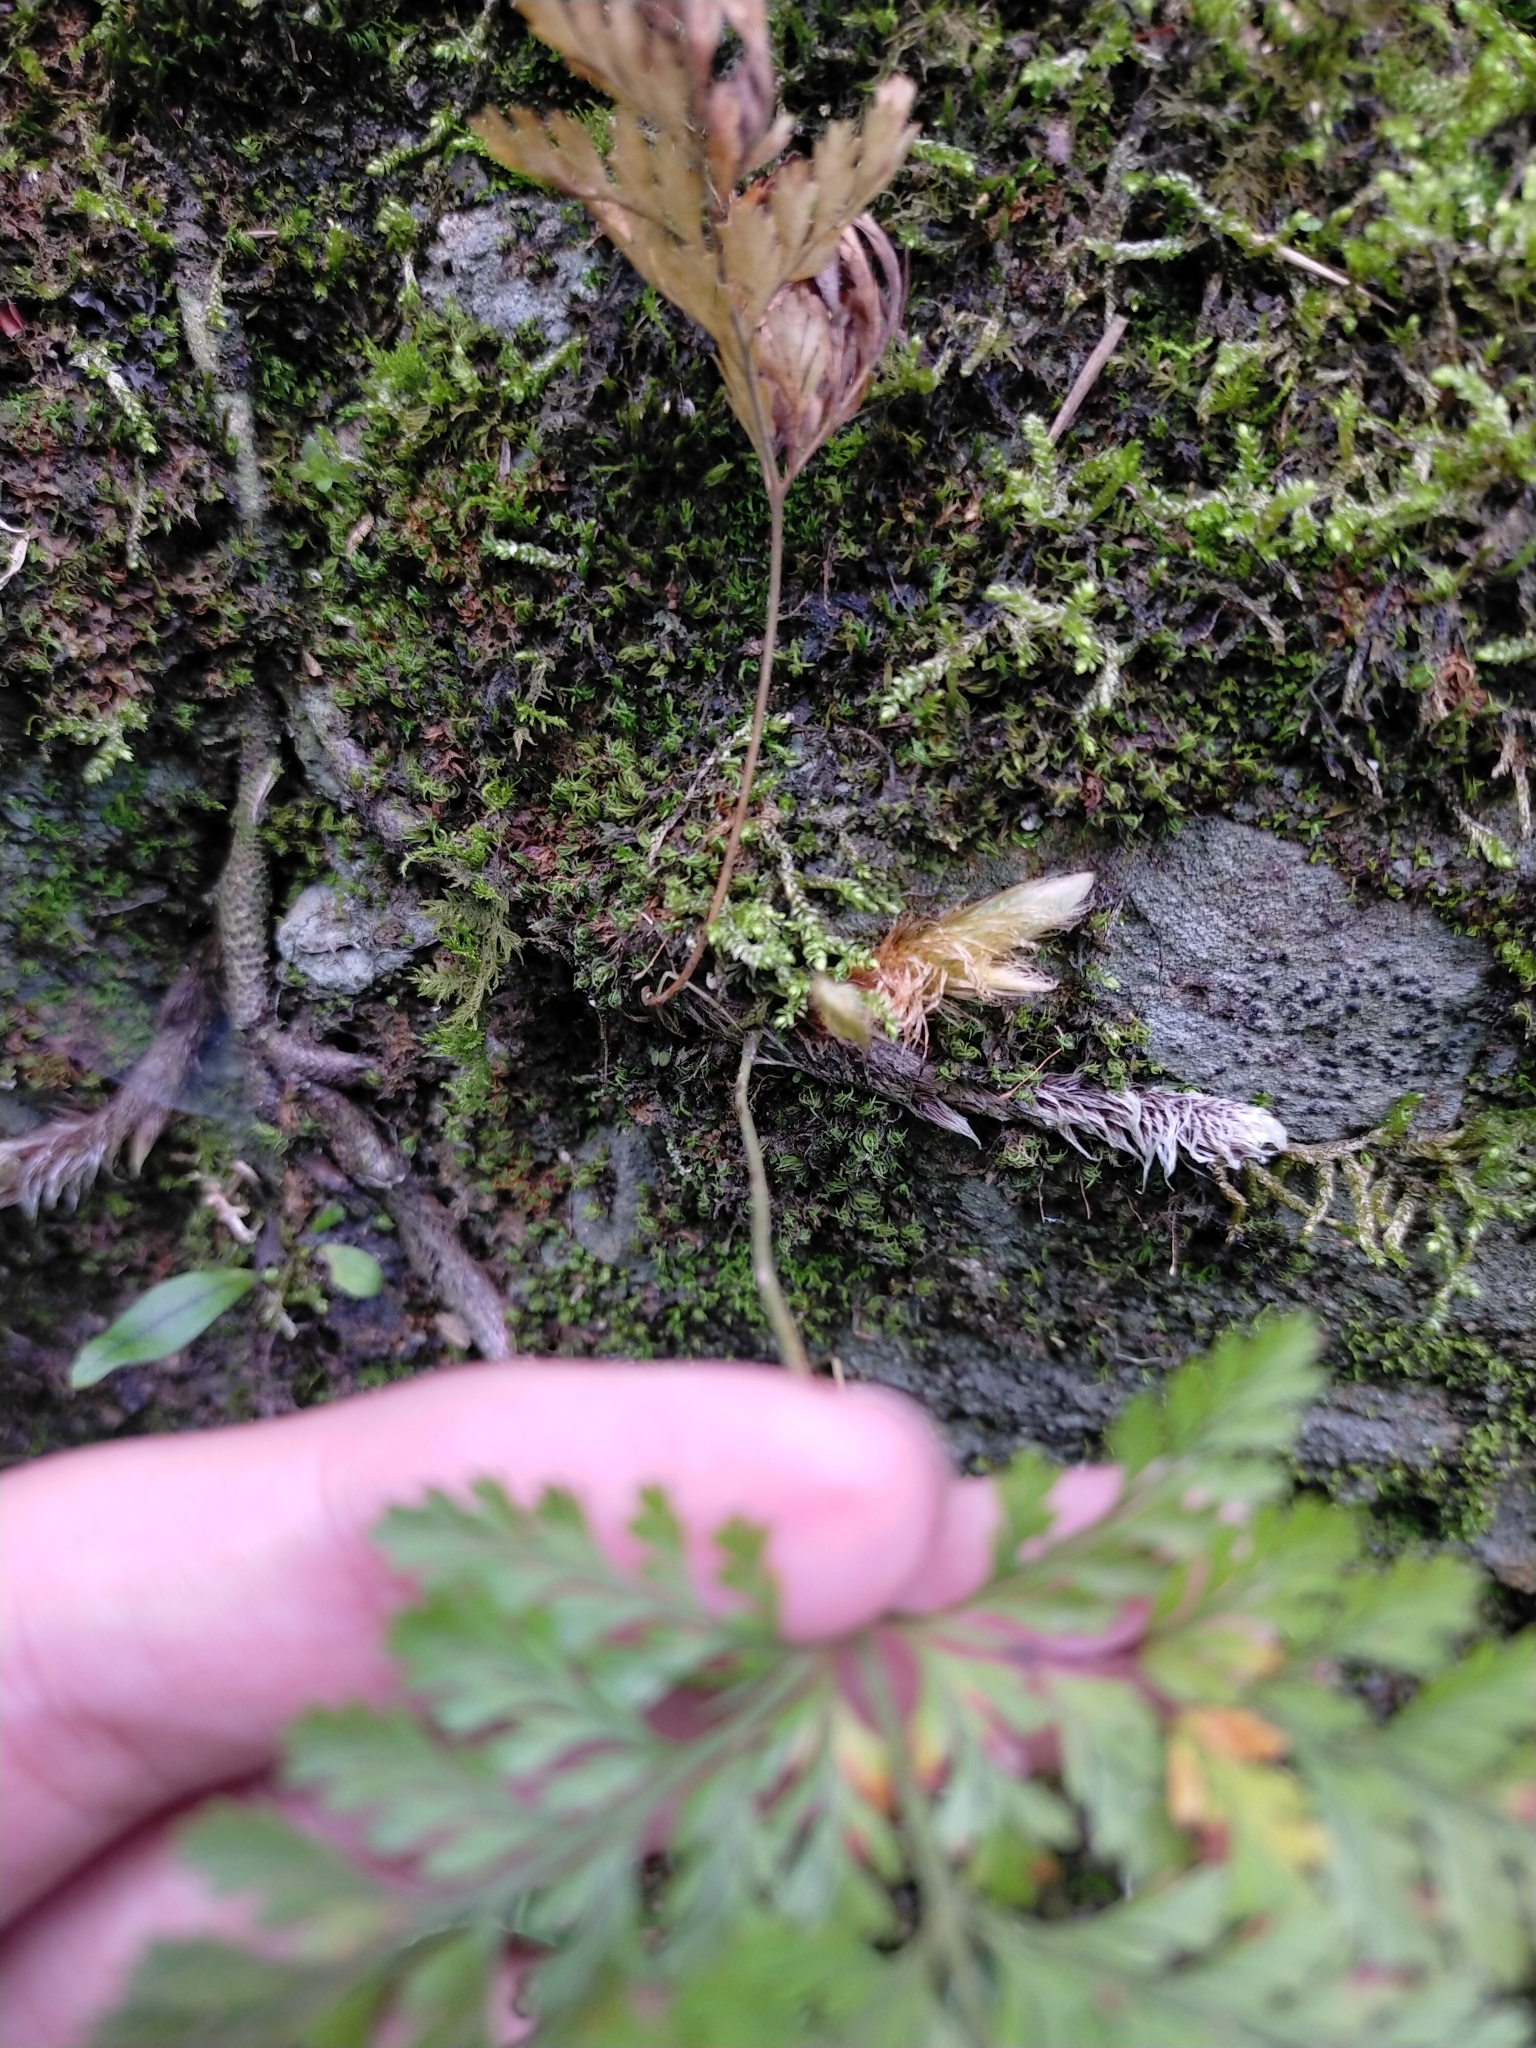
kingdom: Plantae
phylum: Tracheophyta
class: Polypodiopsida
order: Polypodiales
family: Davalliaceae
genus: Davallia
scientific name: Davallia trichomanoides
